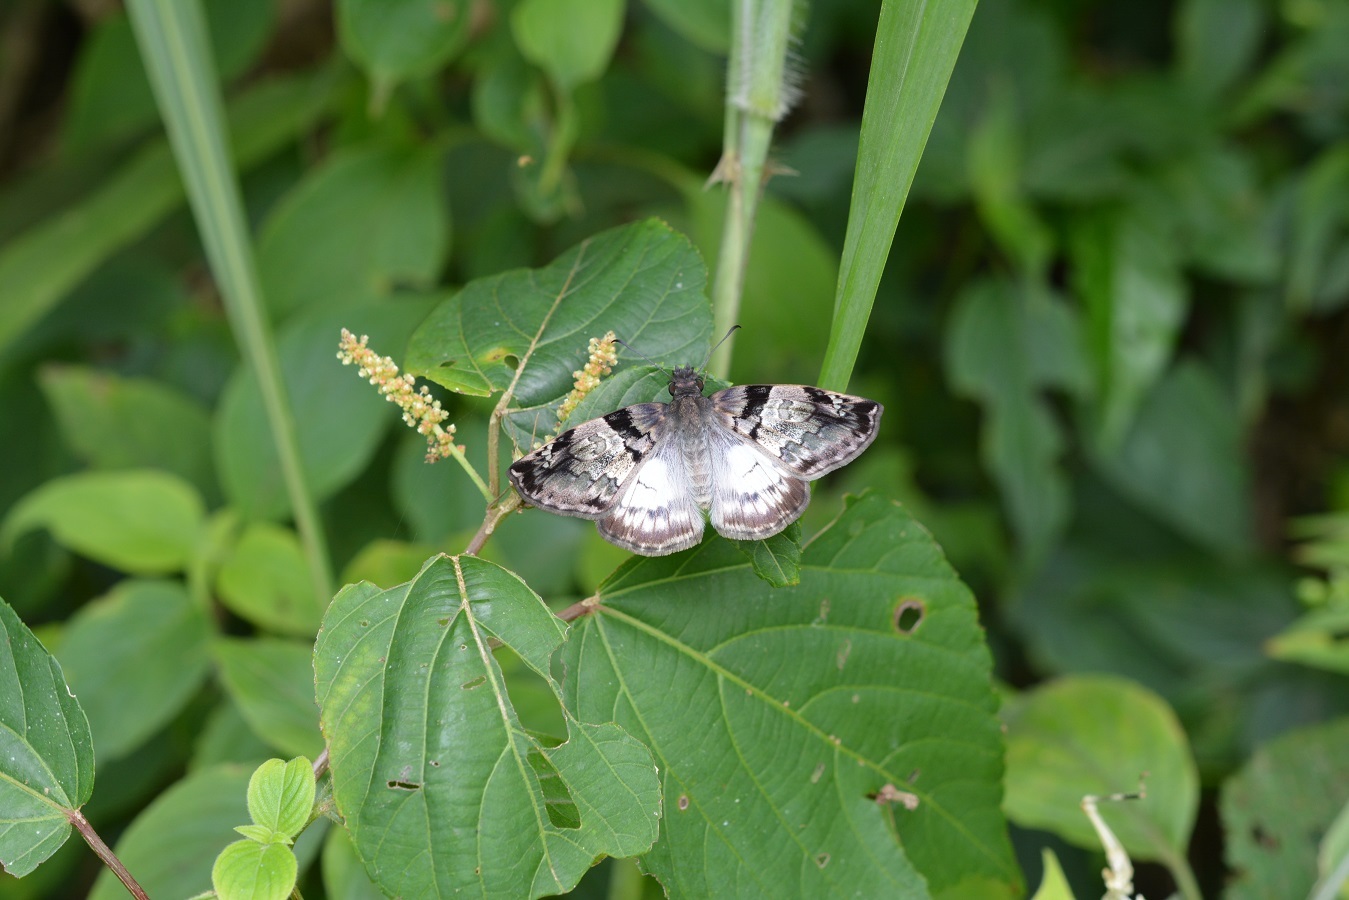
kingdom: Animalia
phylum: Arthropoda
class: Insecta
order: Lepidoptera
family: Hesperiidae
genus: Mylon
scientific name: Mylon lassia
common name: Bold mylon
